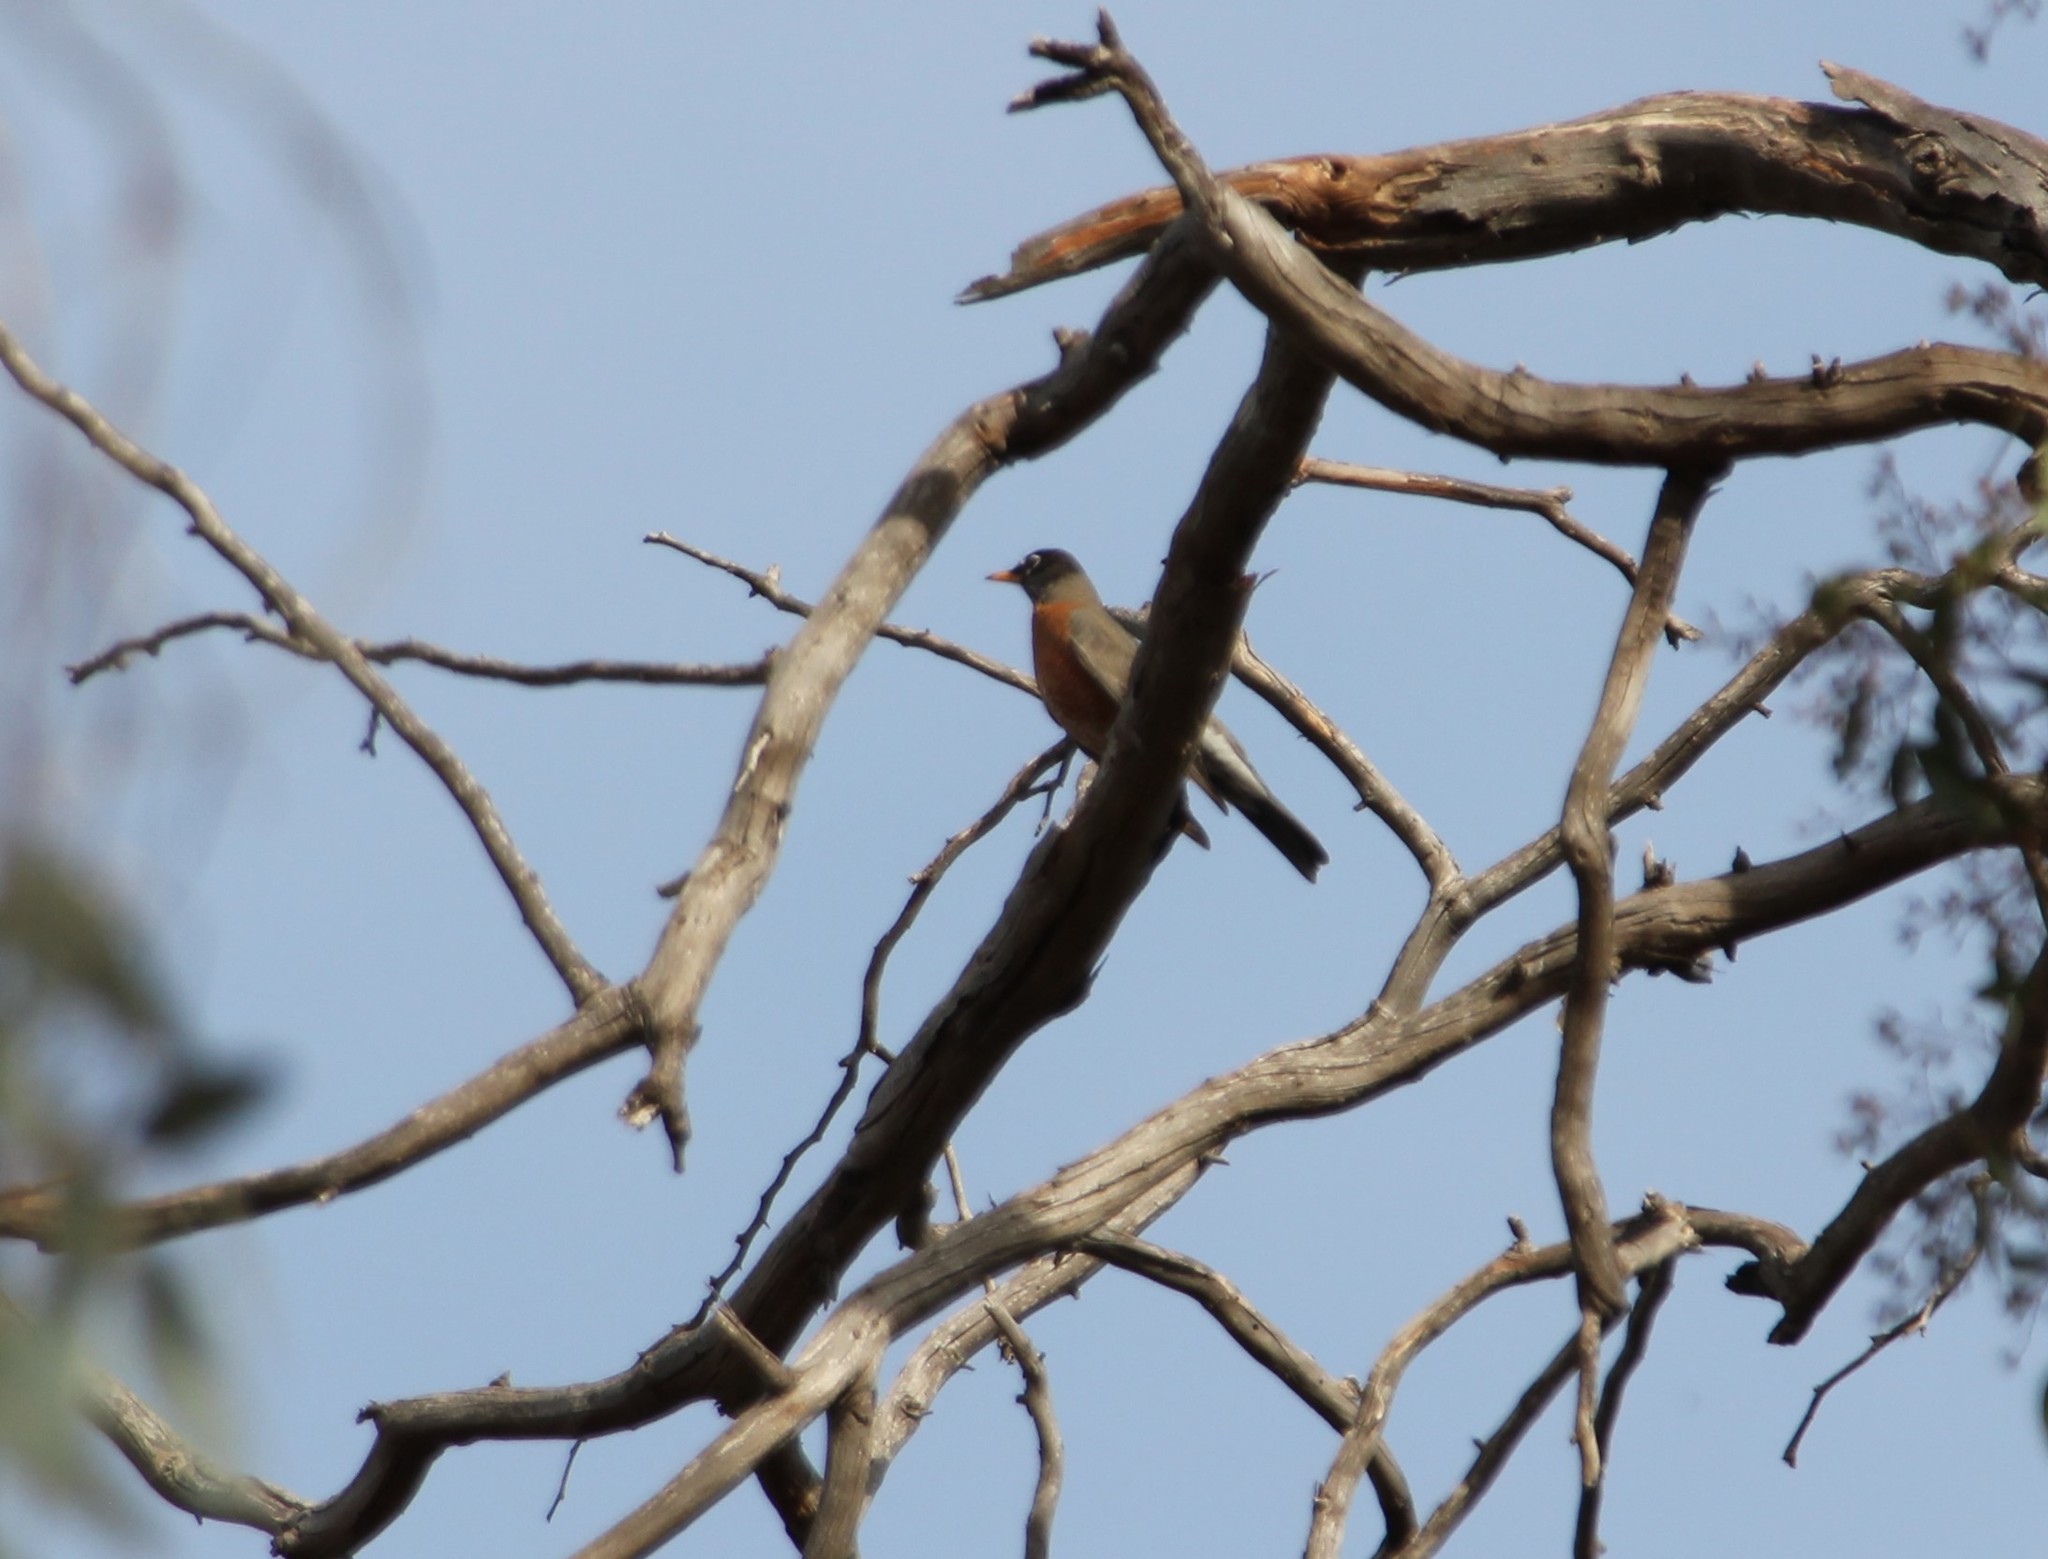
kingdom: Animalia
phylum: Chordata
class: Aves
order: Passeriformes
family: Turdidae
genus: Turdus
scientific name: Turdus migratorius
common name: American robin
